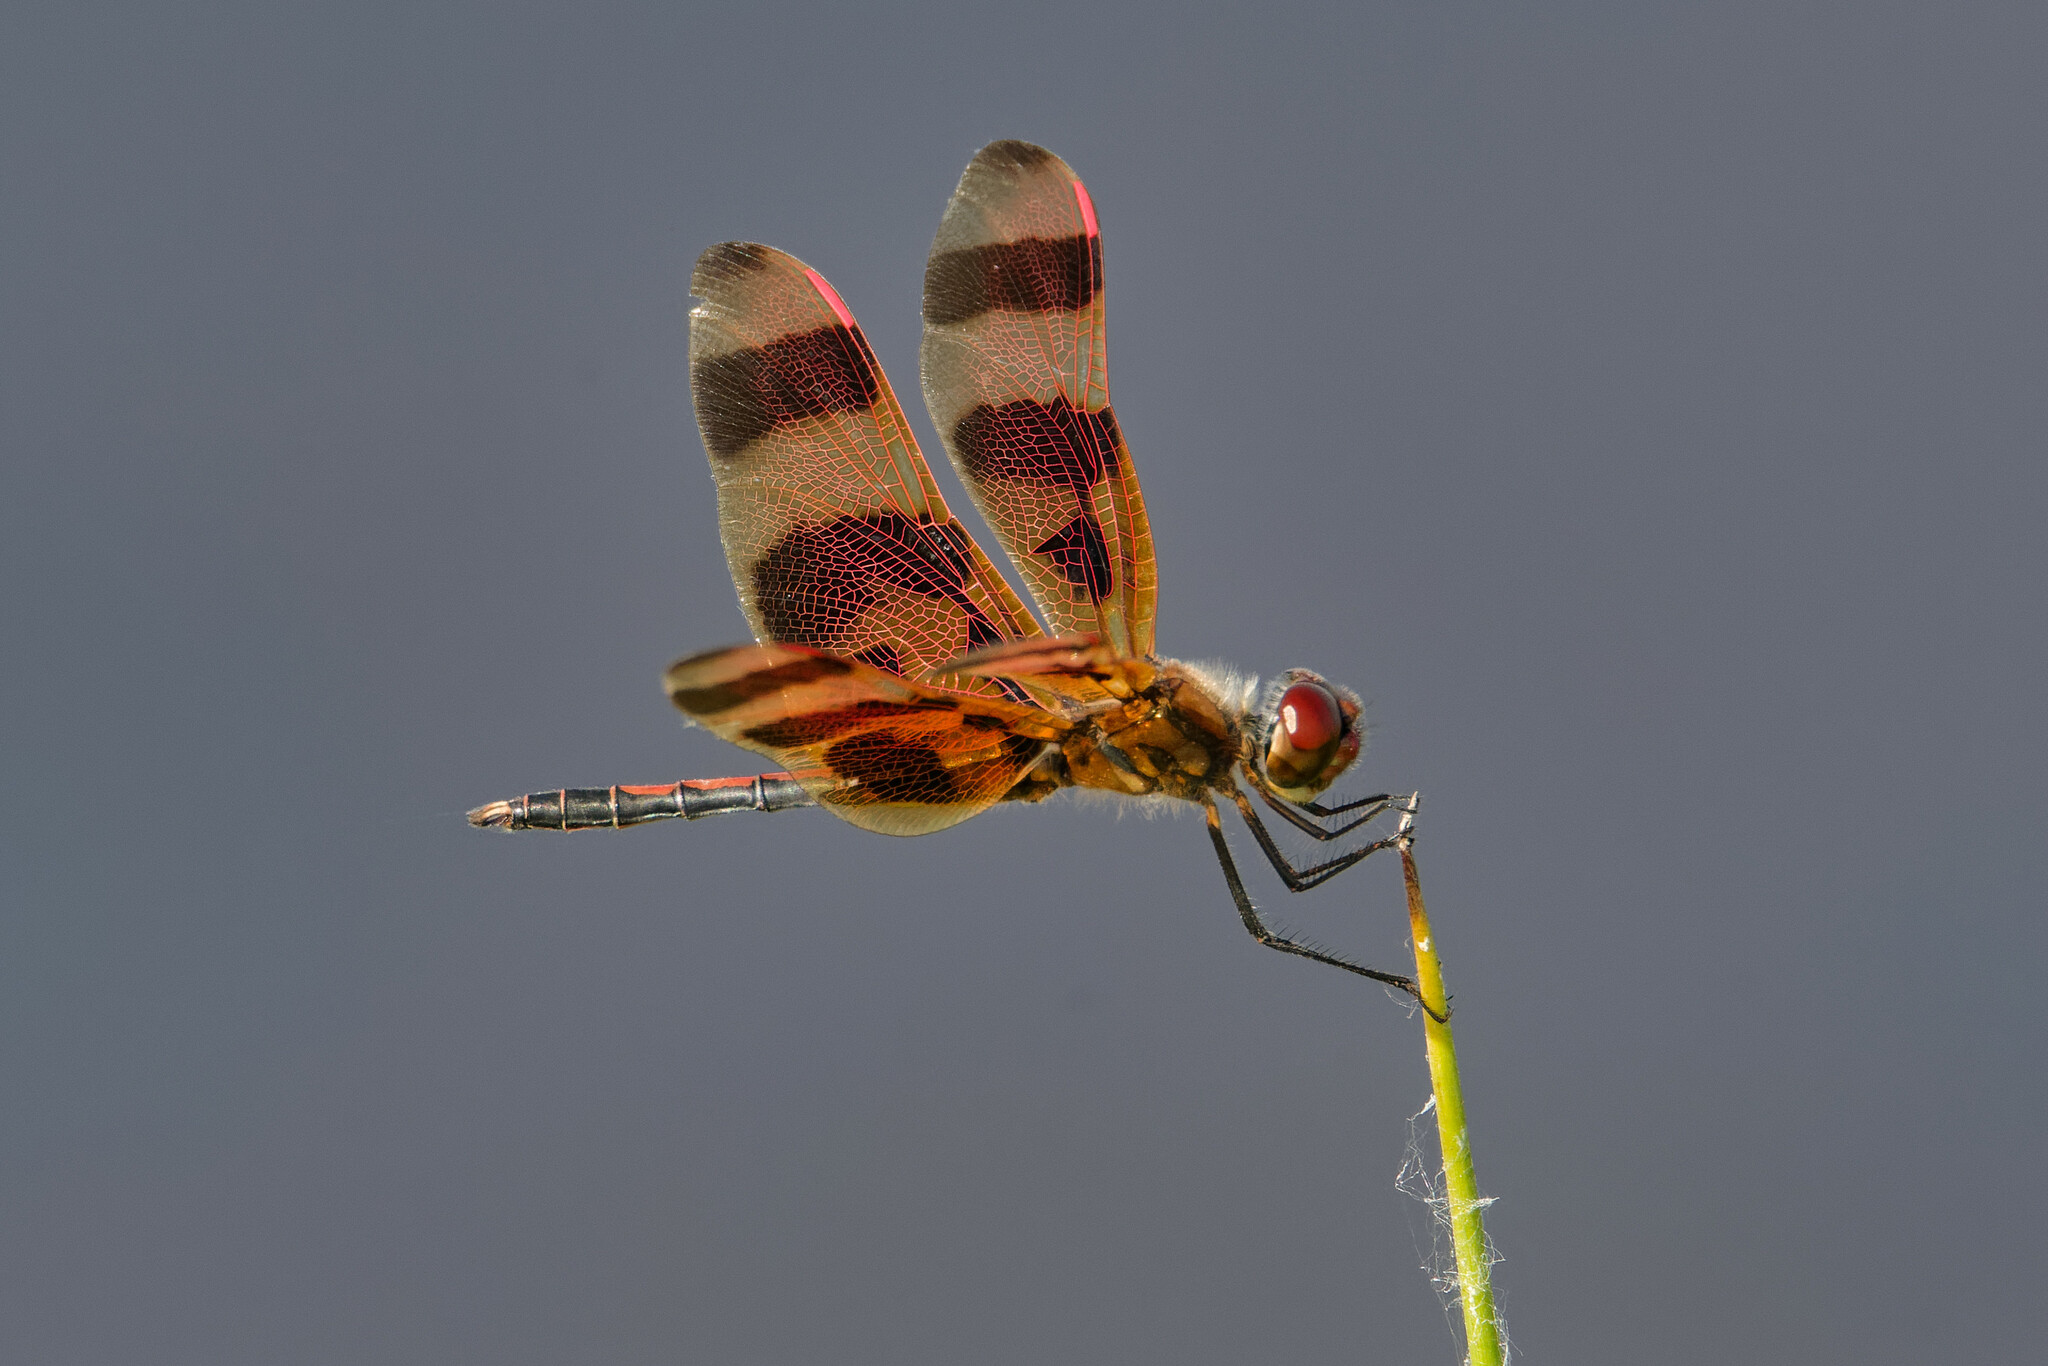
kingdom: Animalia
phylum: Arthropoda
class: Insecta
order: Odonata
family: Libellulidae
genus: Celithemis
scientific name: Celithemis eponina
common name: Halloween pennant
